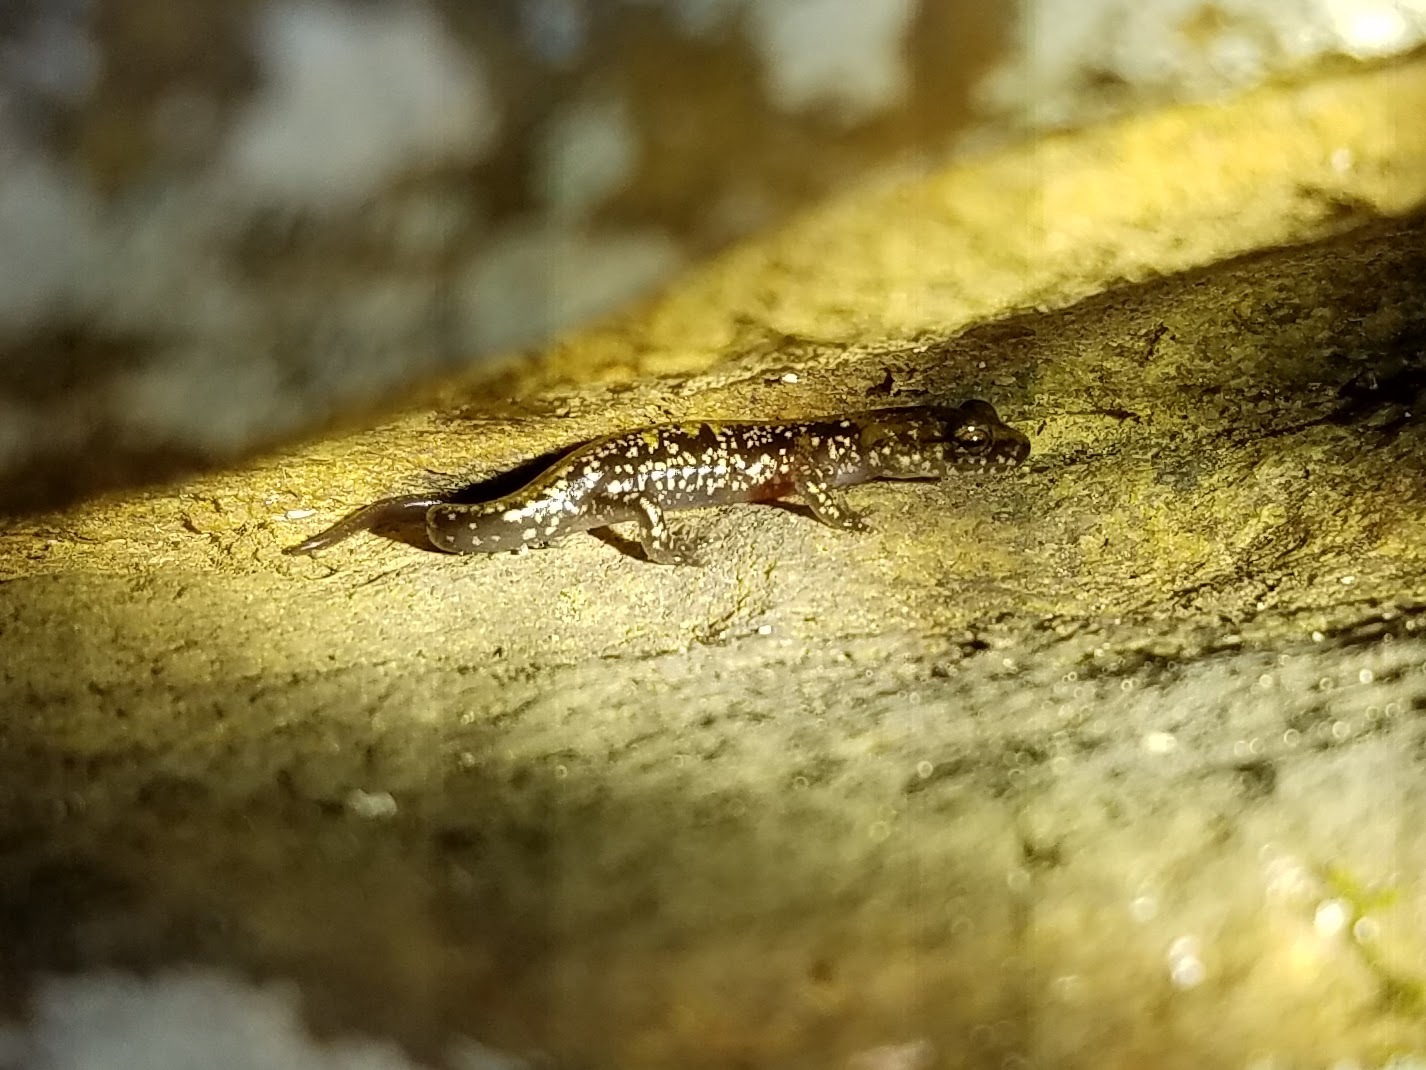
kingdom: Animalia
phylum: Chordata
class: Amphibia
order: Caudata
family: Plethodontidae
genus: Plethodon
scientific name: Plethodon petraeus
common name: Pigeon mountain salamander
